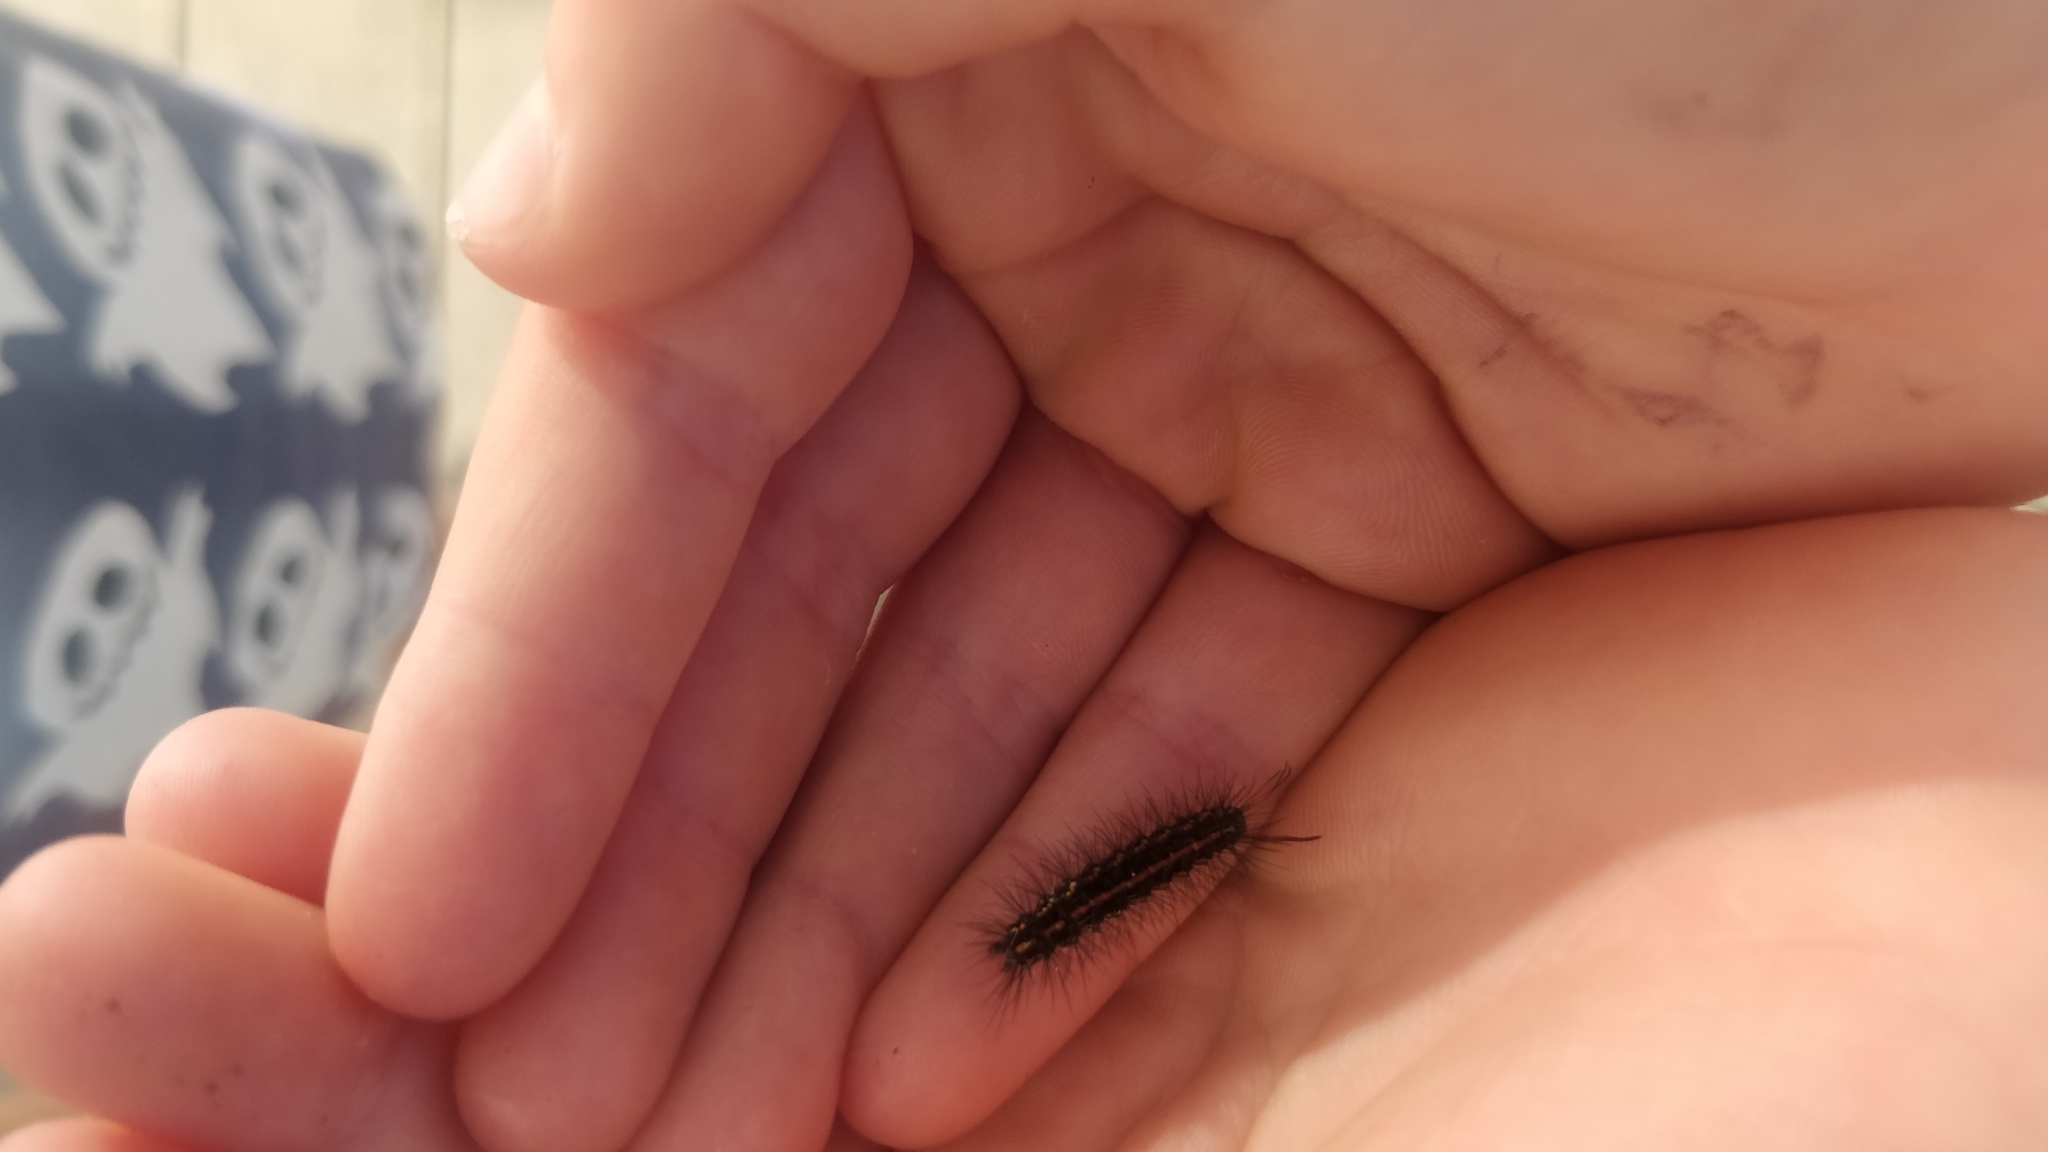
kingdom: Animalia
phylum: Arthropoda
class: Insecta
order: Lepidoptera
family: Erebidae
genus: Nyctemera
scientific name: Nyctemera amicus
